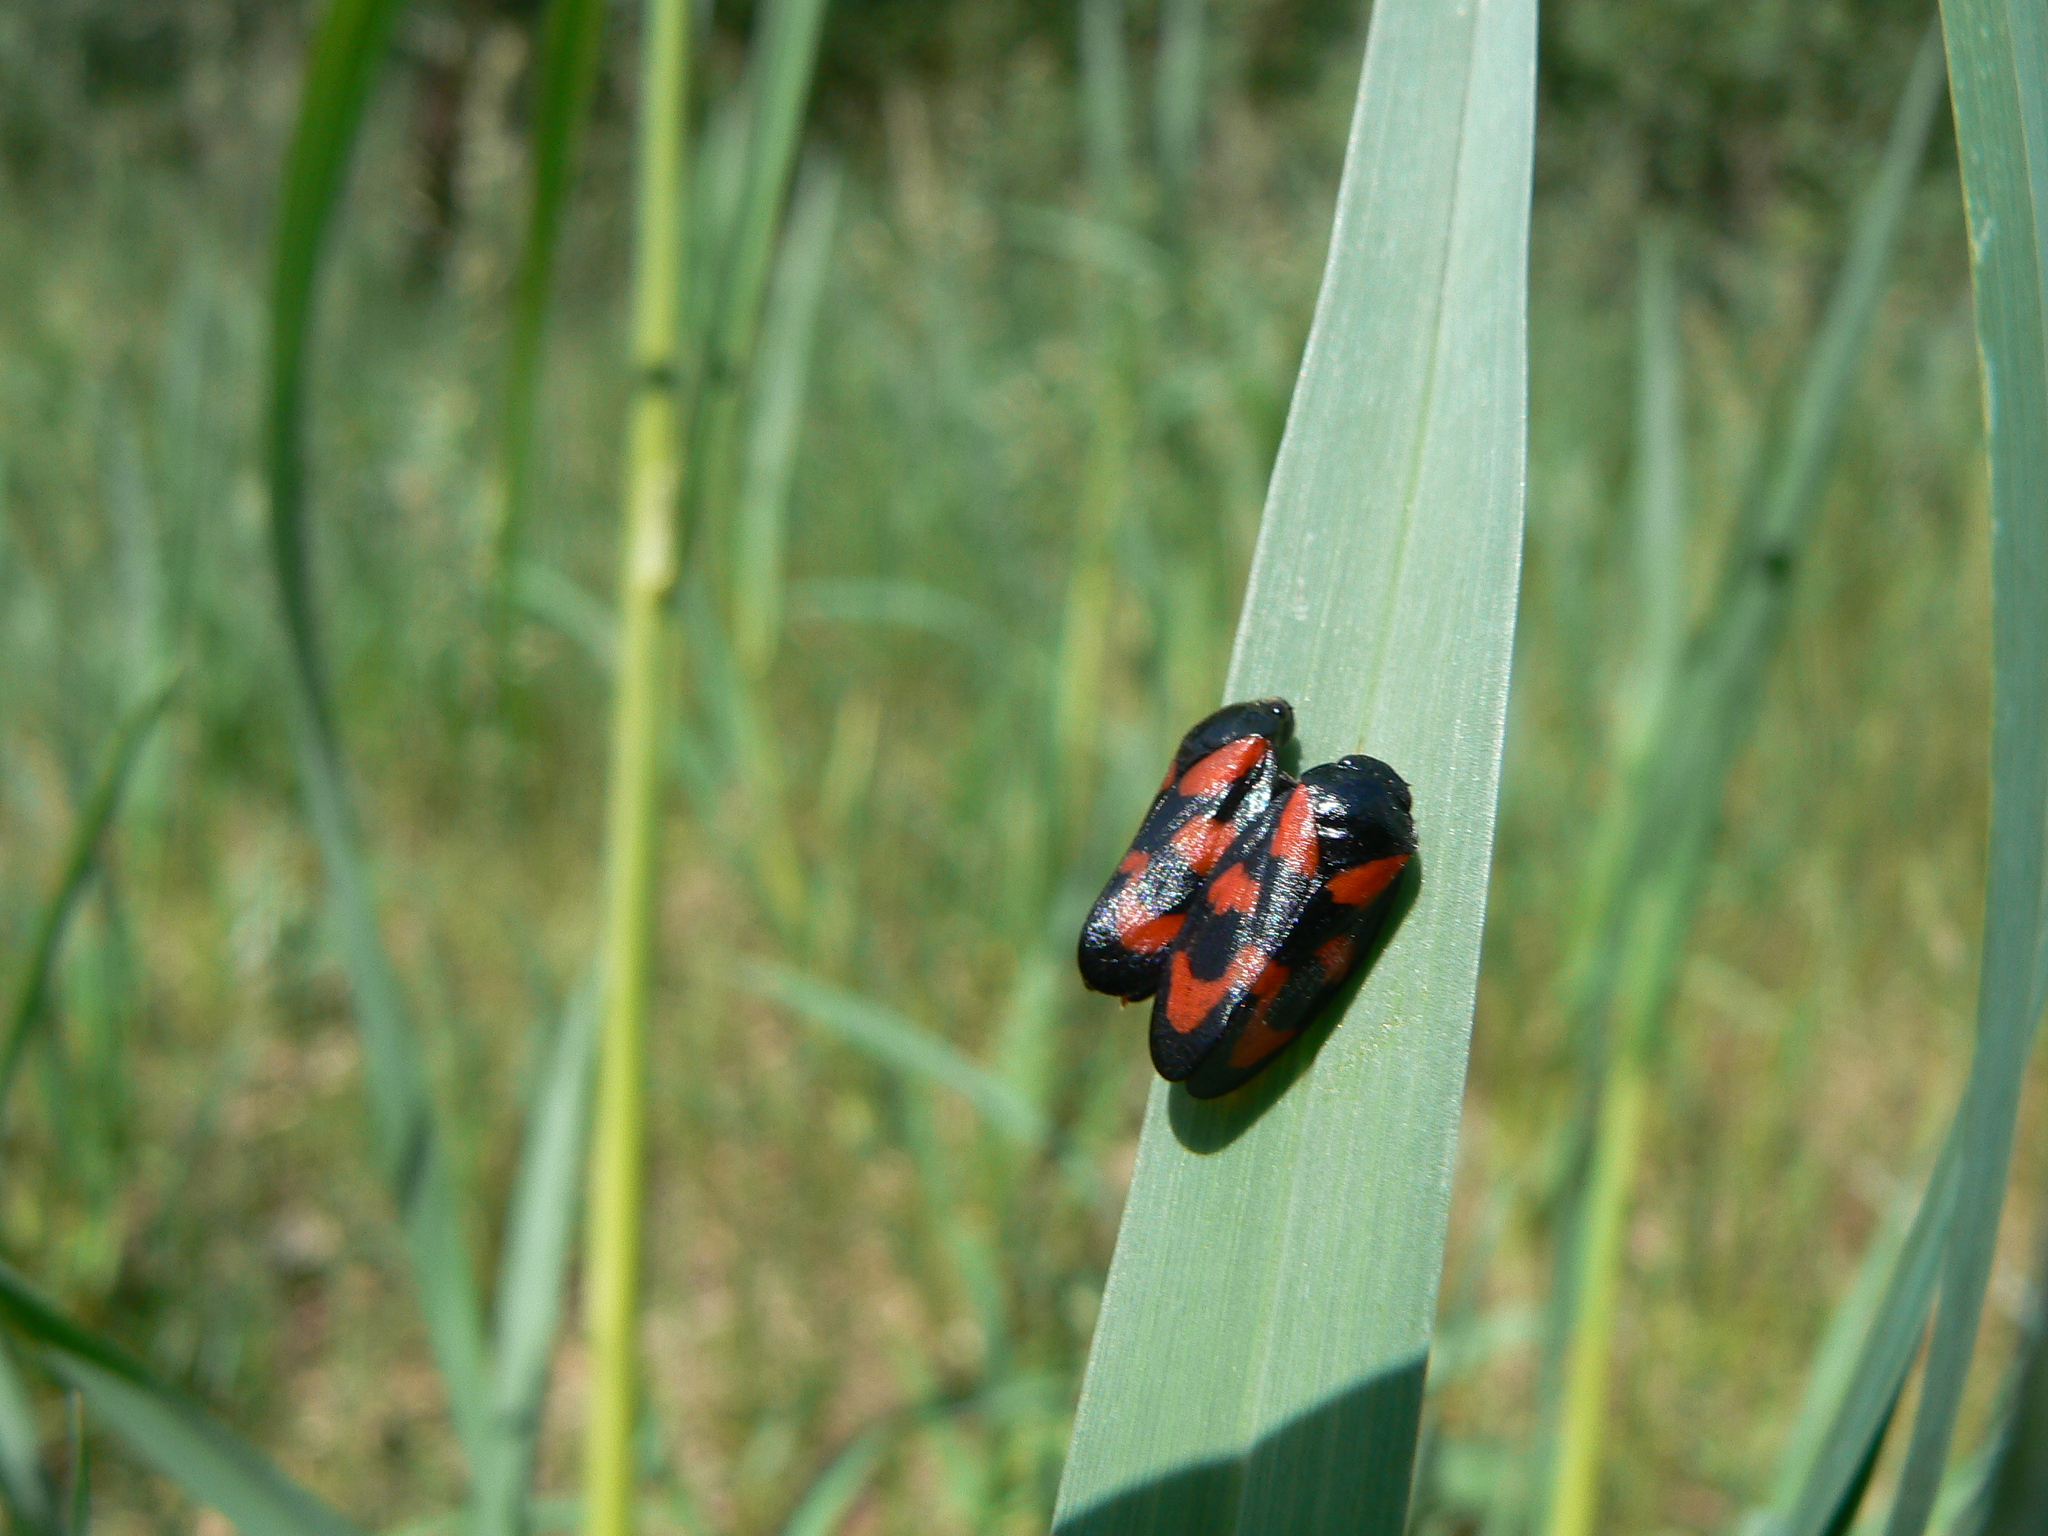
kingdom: Animalia
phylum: Arthropoda
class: Insecta
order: Hemiptera
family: Cercopidae
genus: Cercopis
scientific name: Cercopis vulnerata
